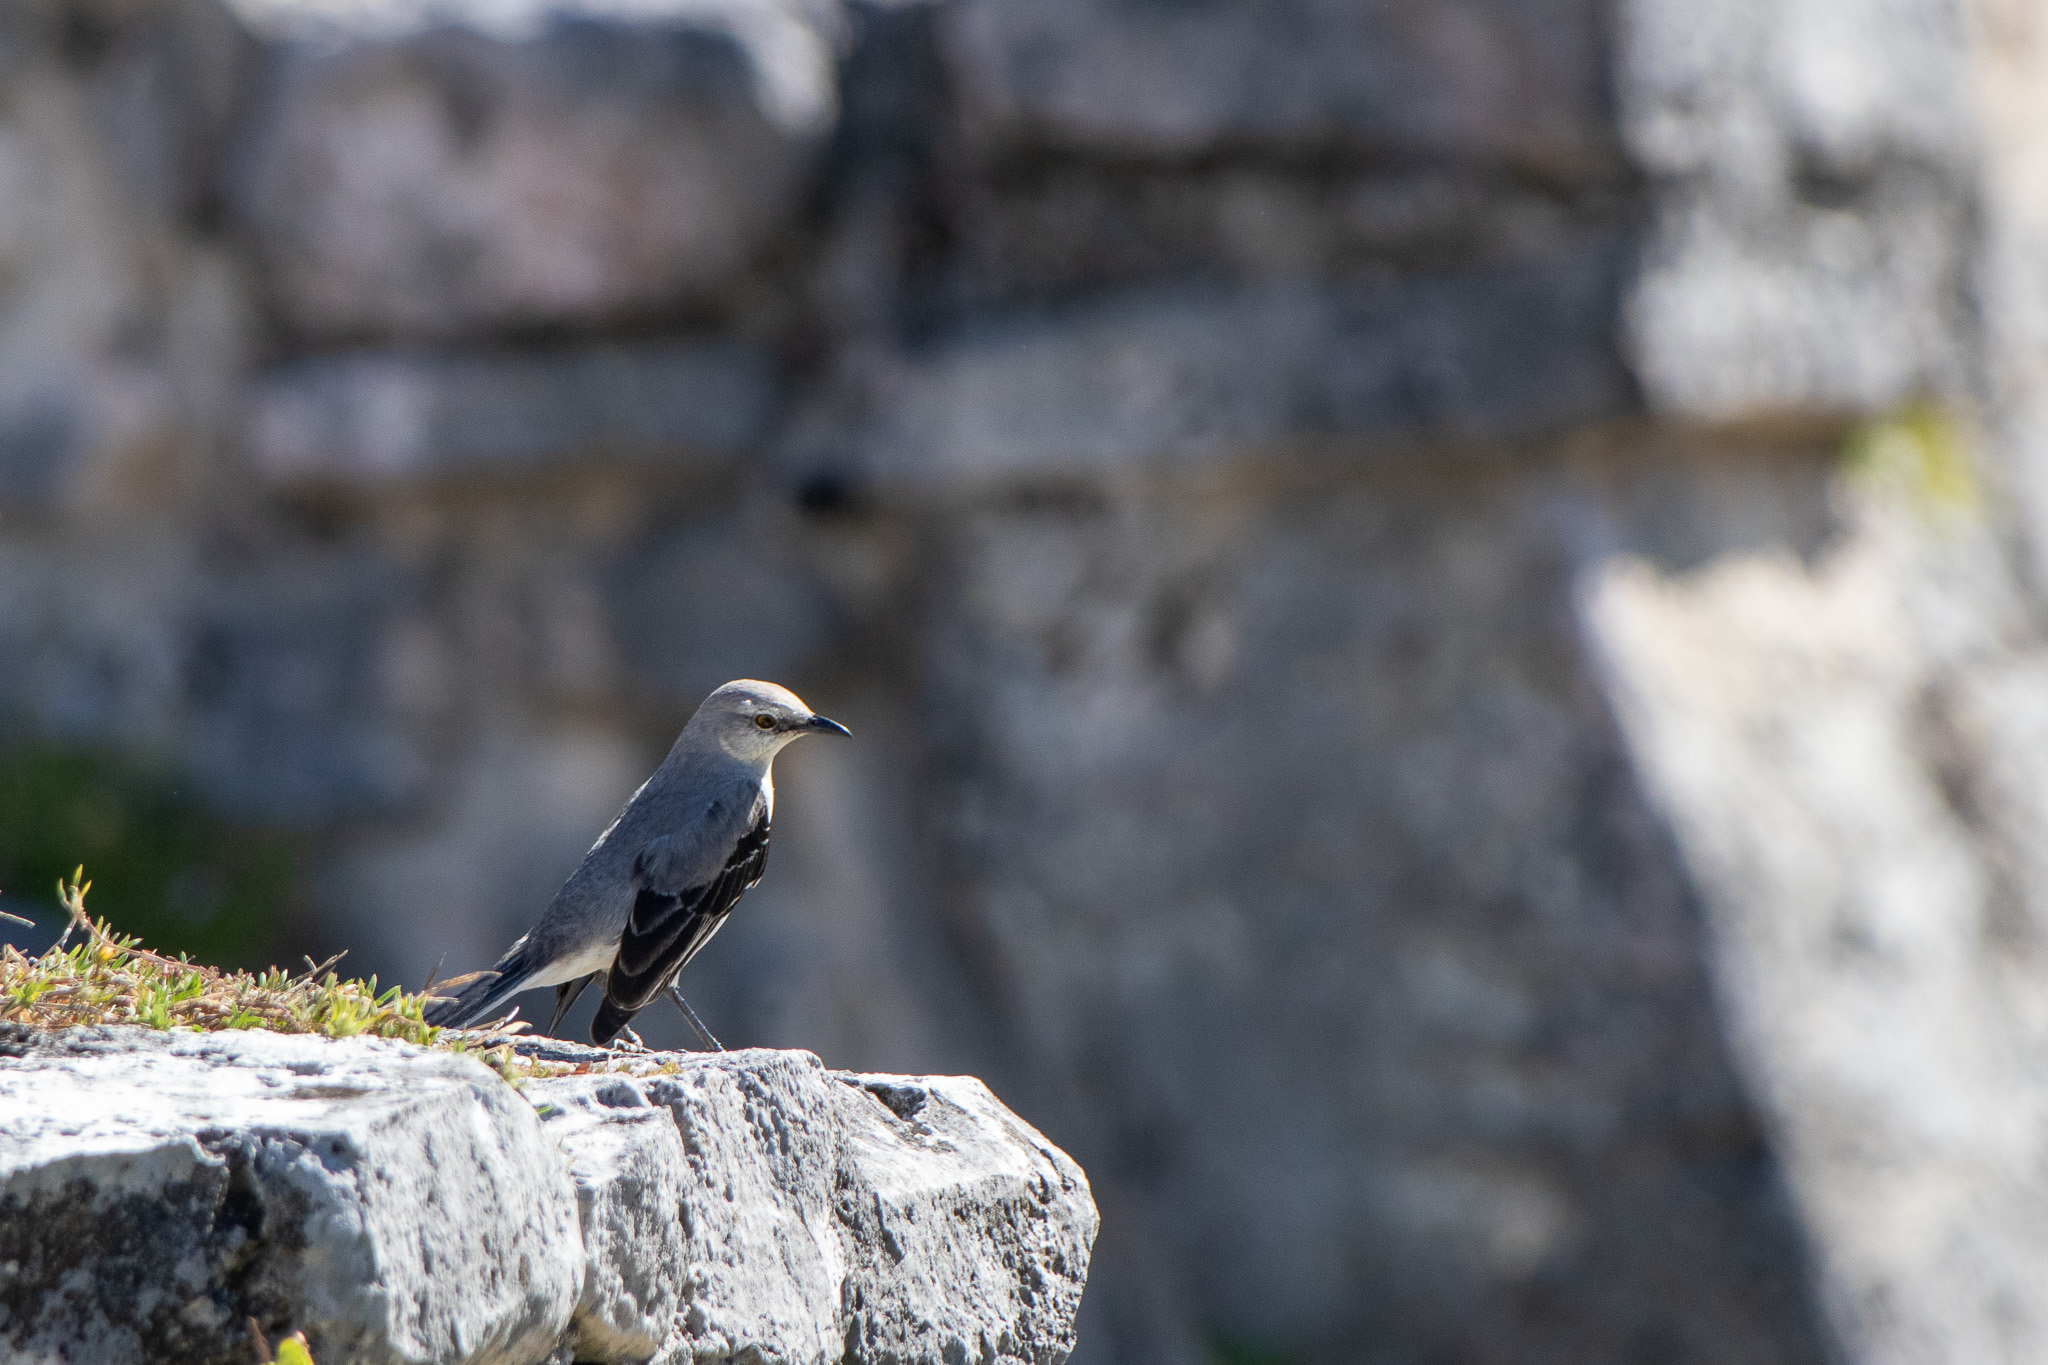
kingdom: Animalia
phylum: Chordata
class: Aves
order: Passeriformes
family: Mimidae
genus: Mimus
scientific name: Mimus gilvus
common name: Tropical mockingbird
